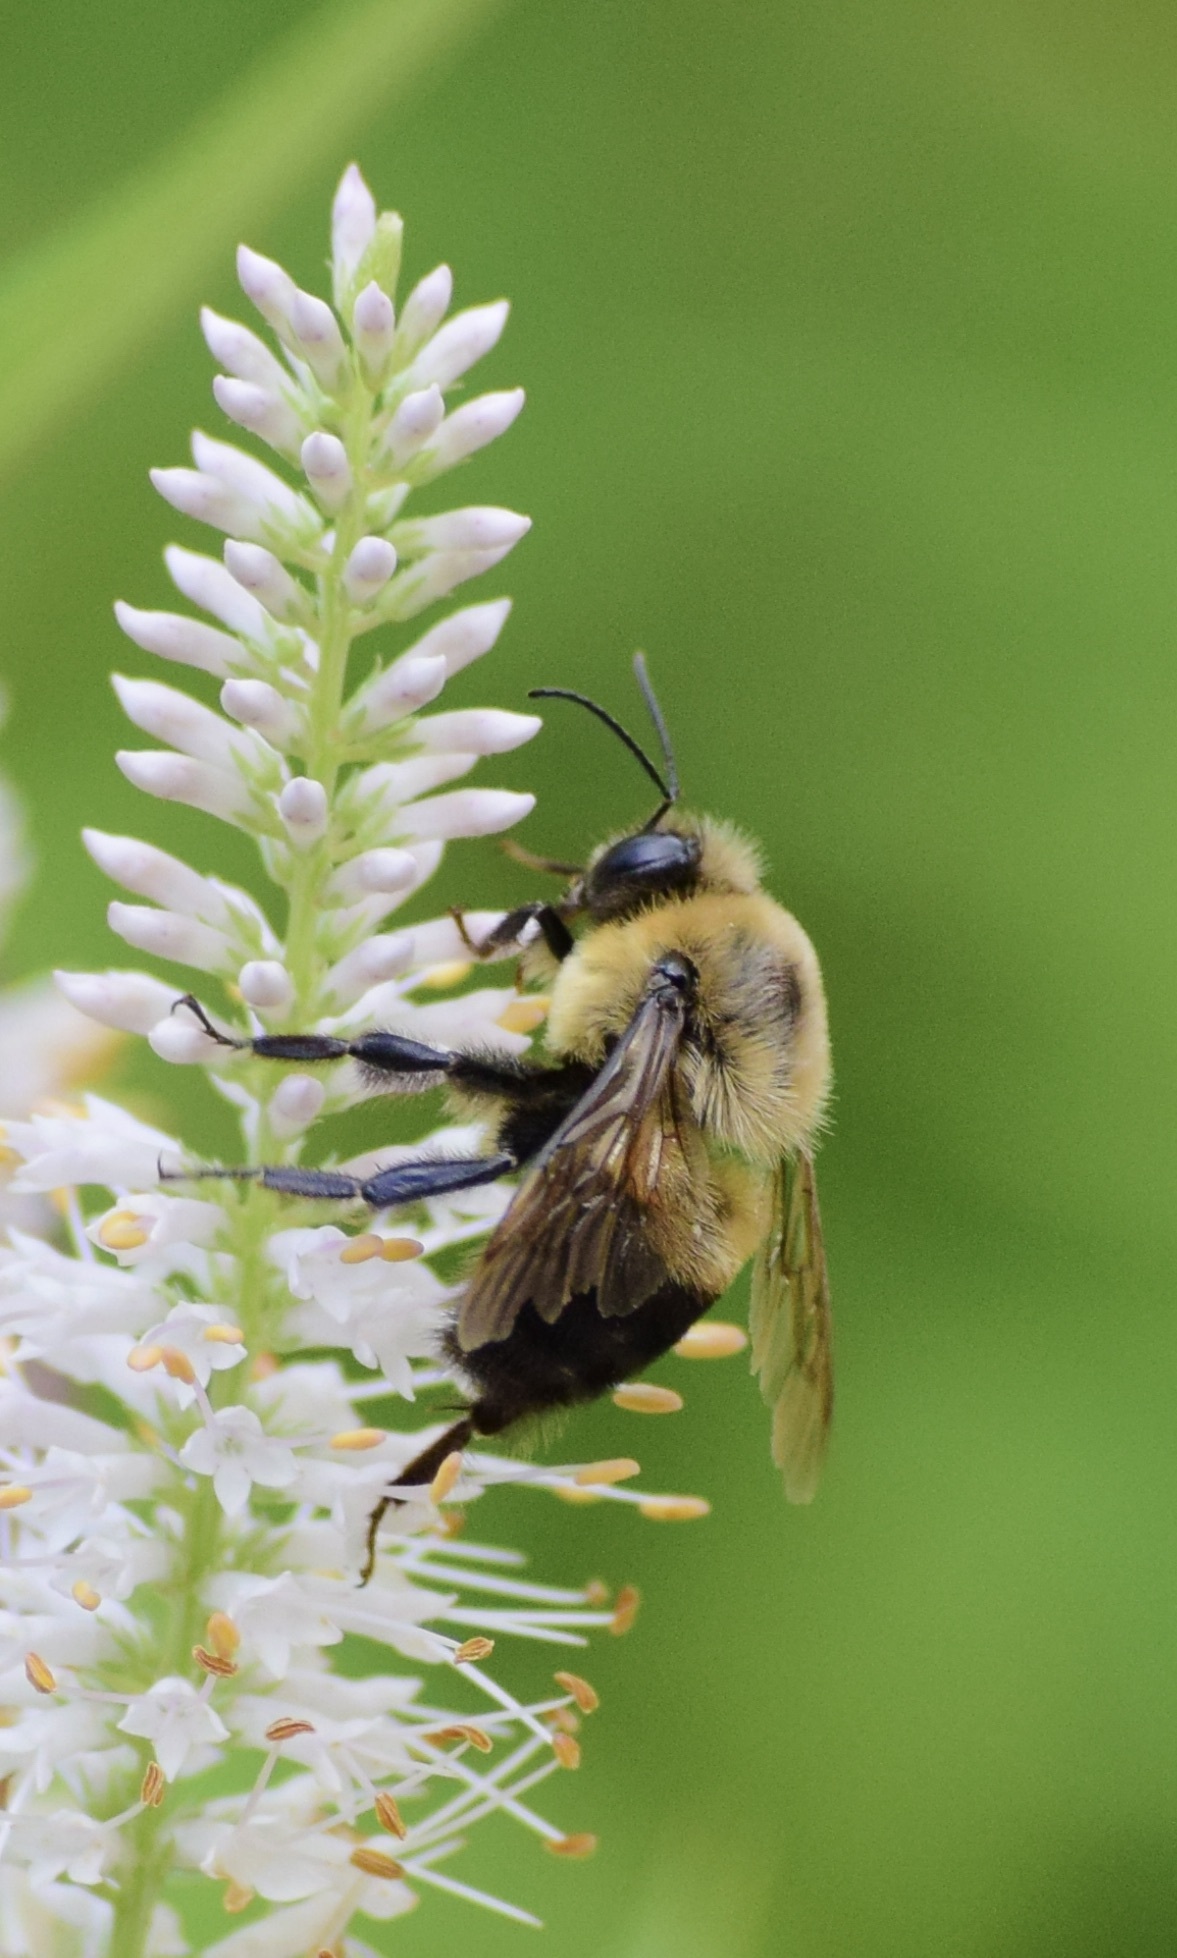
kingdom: Animalia
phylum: Arthropoda
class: Insecta
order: Hymenoptera
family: Apidae
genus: Bombus
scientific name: Bombus griseocollis
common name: Brown-belted bumble bee
